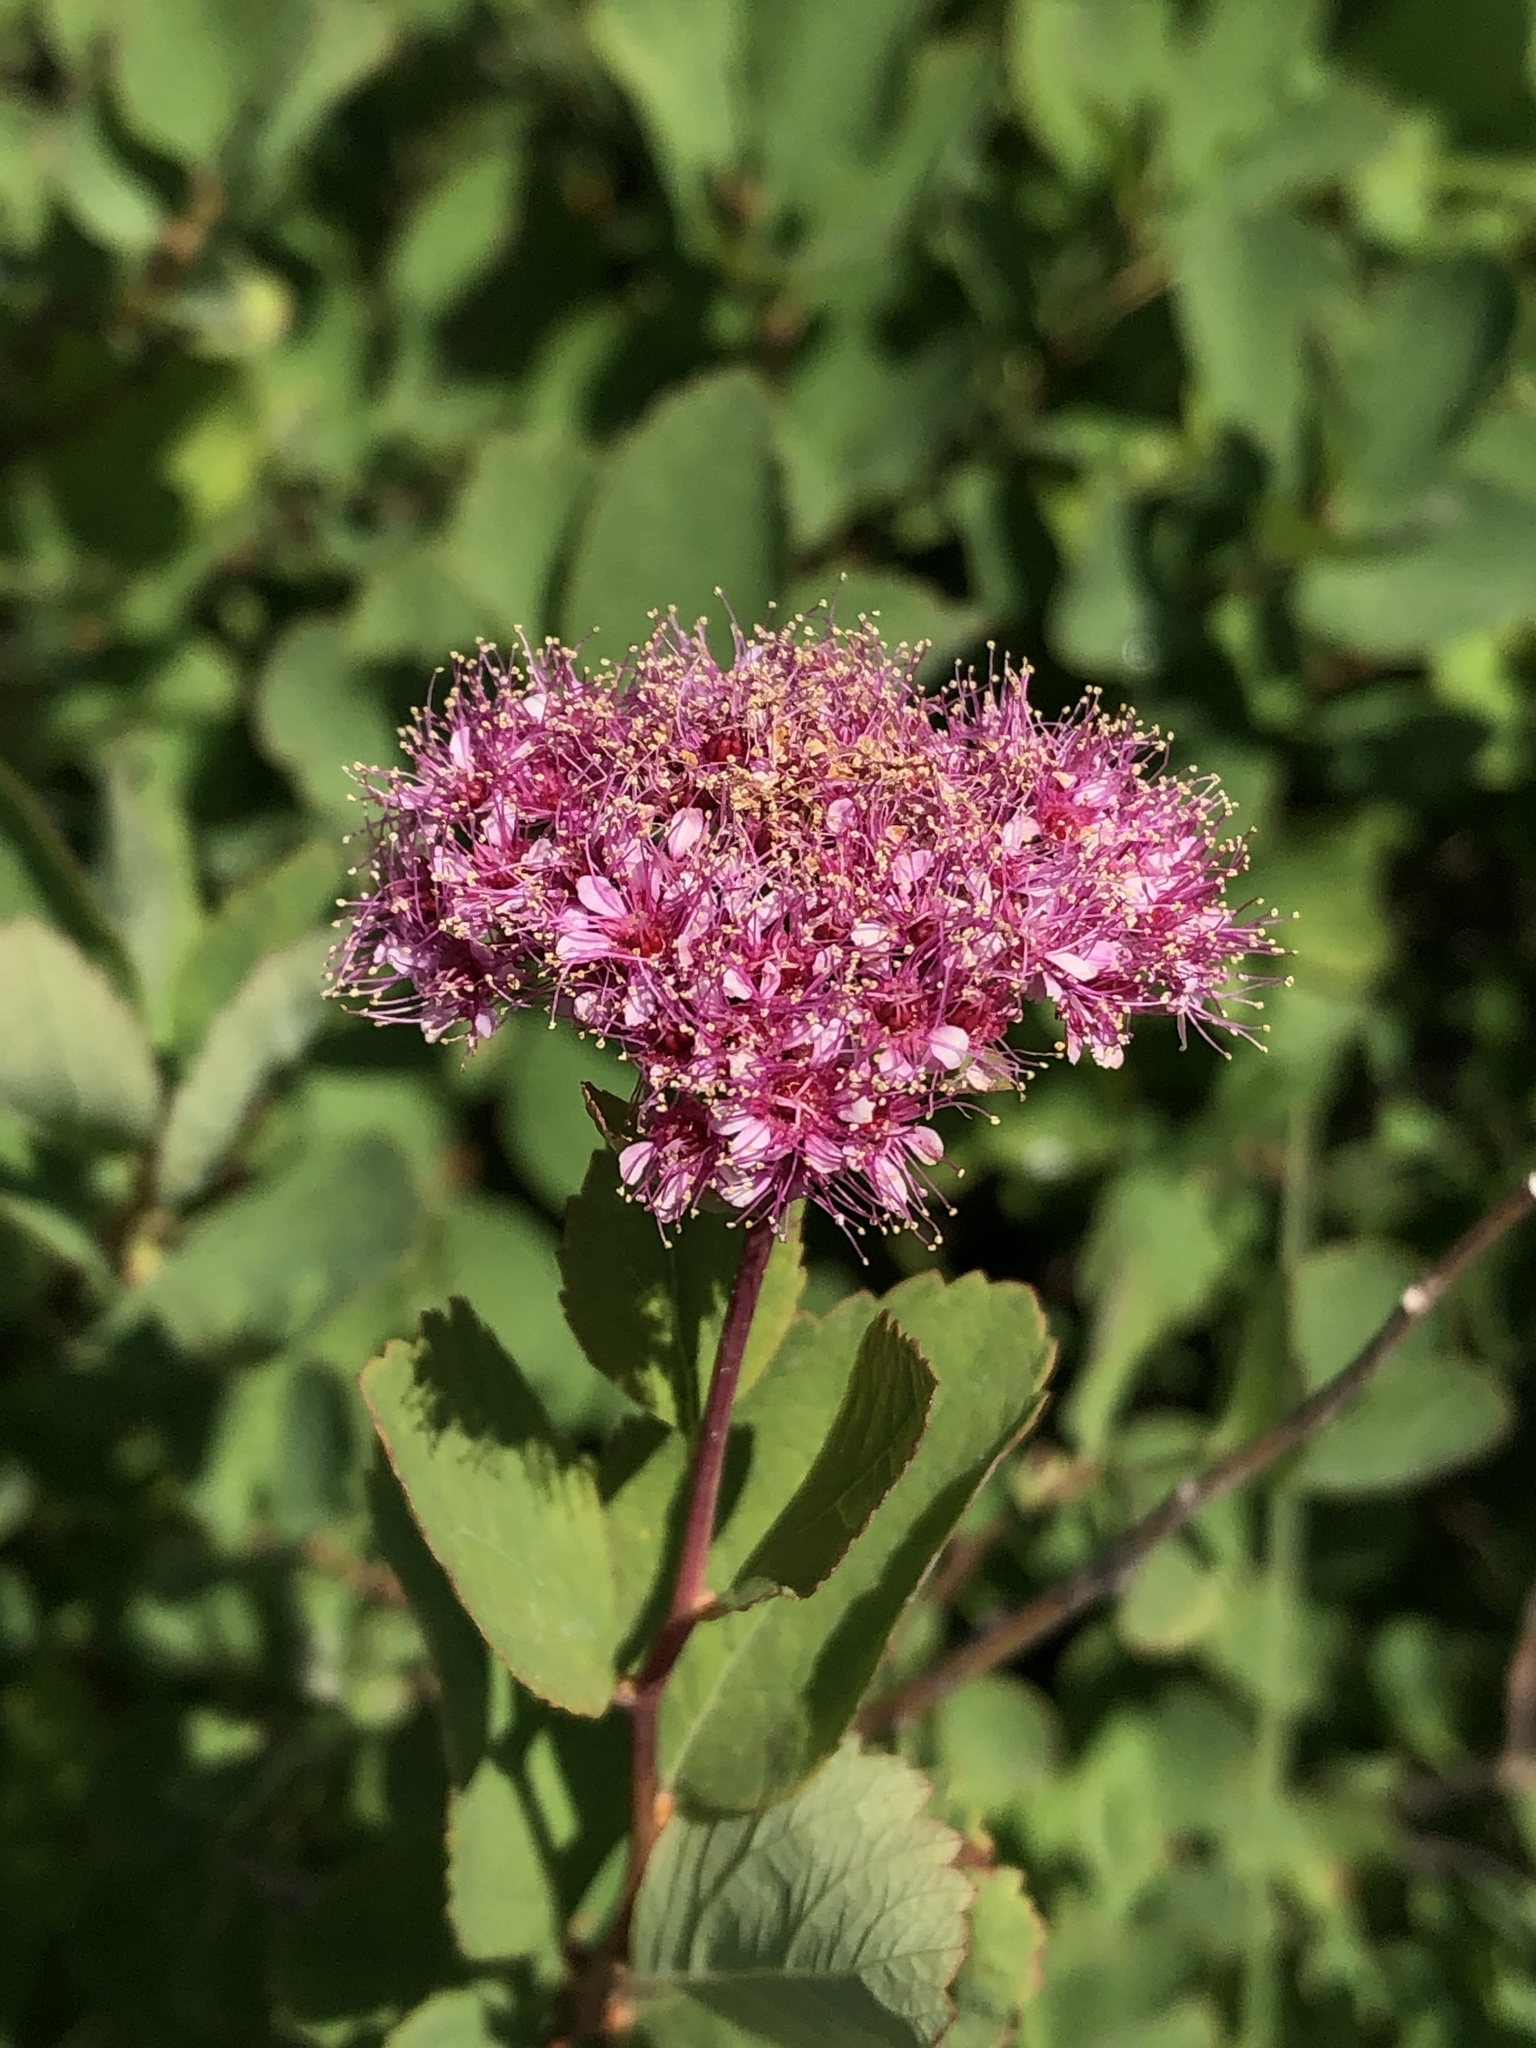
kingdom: Plantae
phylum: Tracheophyta
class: Magnoliopsida
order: Rosales
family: Rosaceae
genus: Spiraea
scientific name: Spiraea splendens
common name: Subalpine meadowsweet
